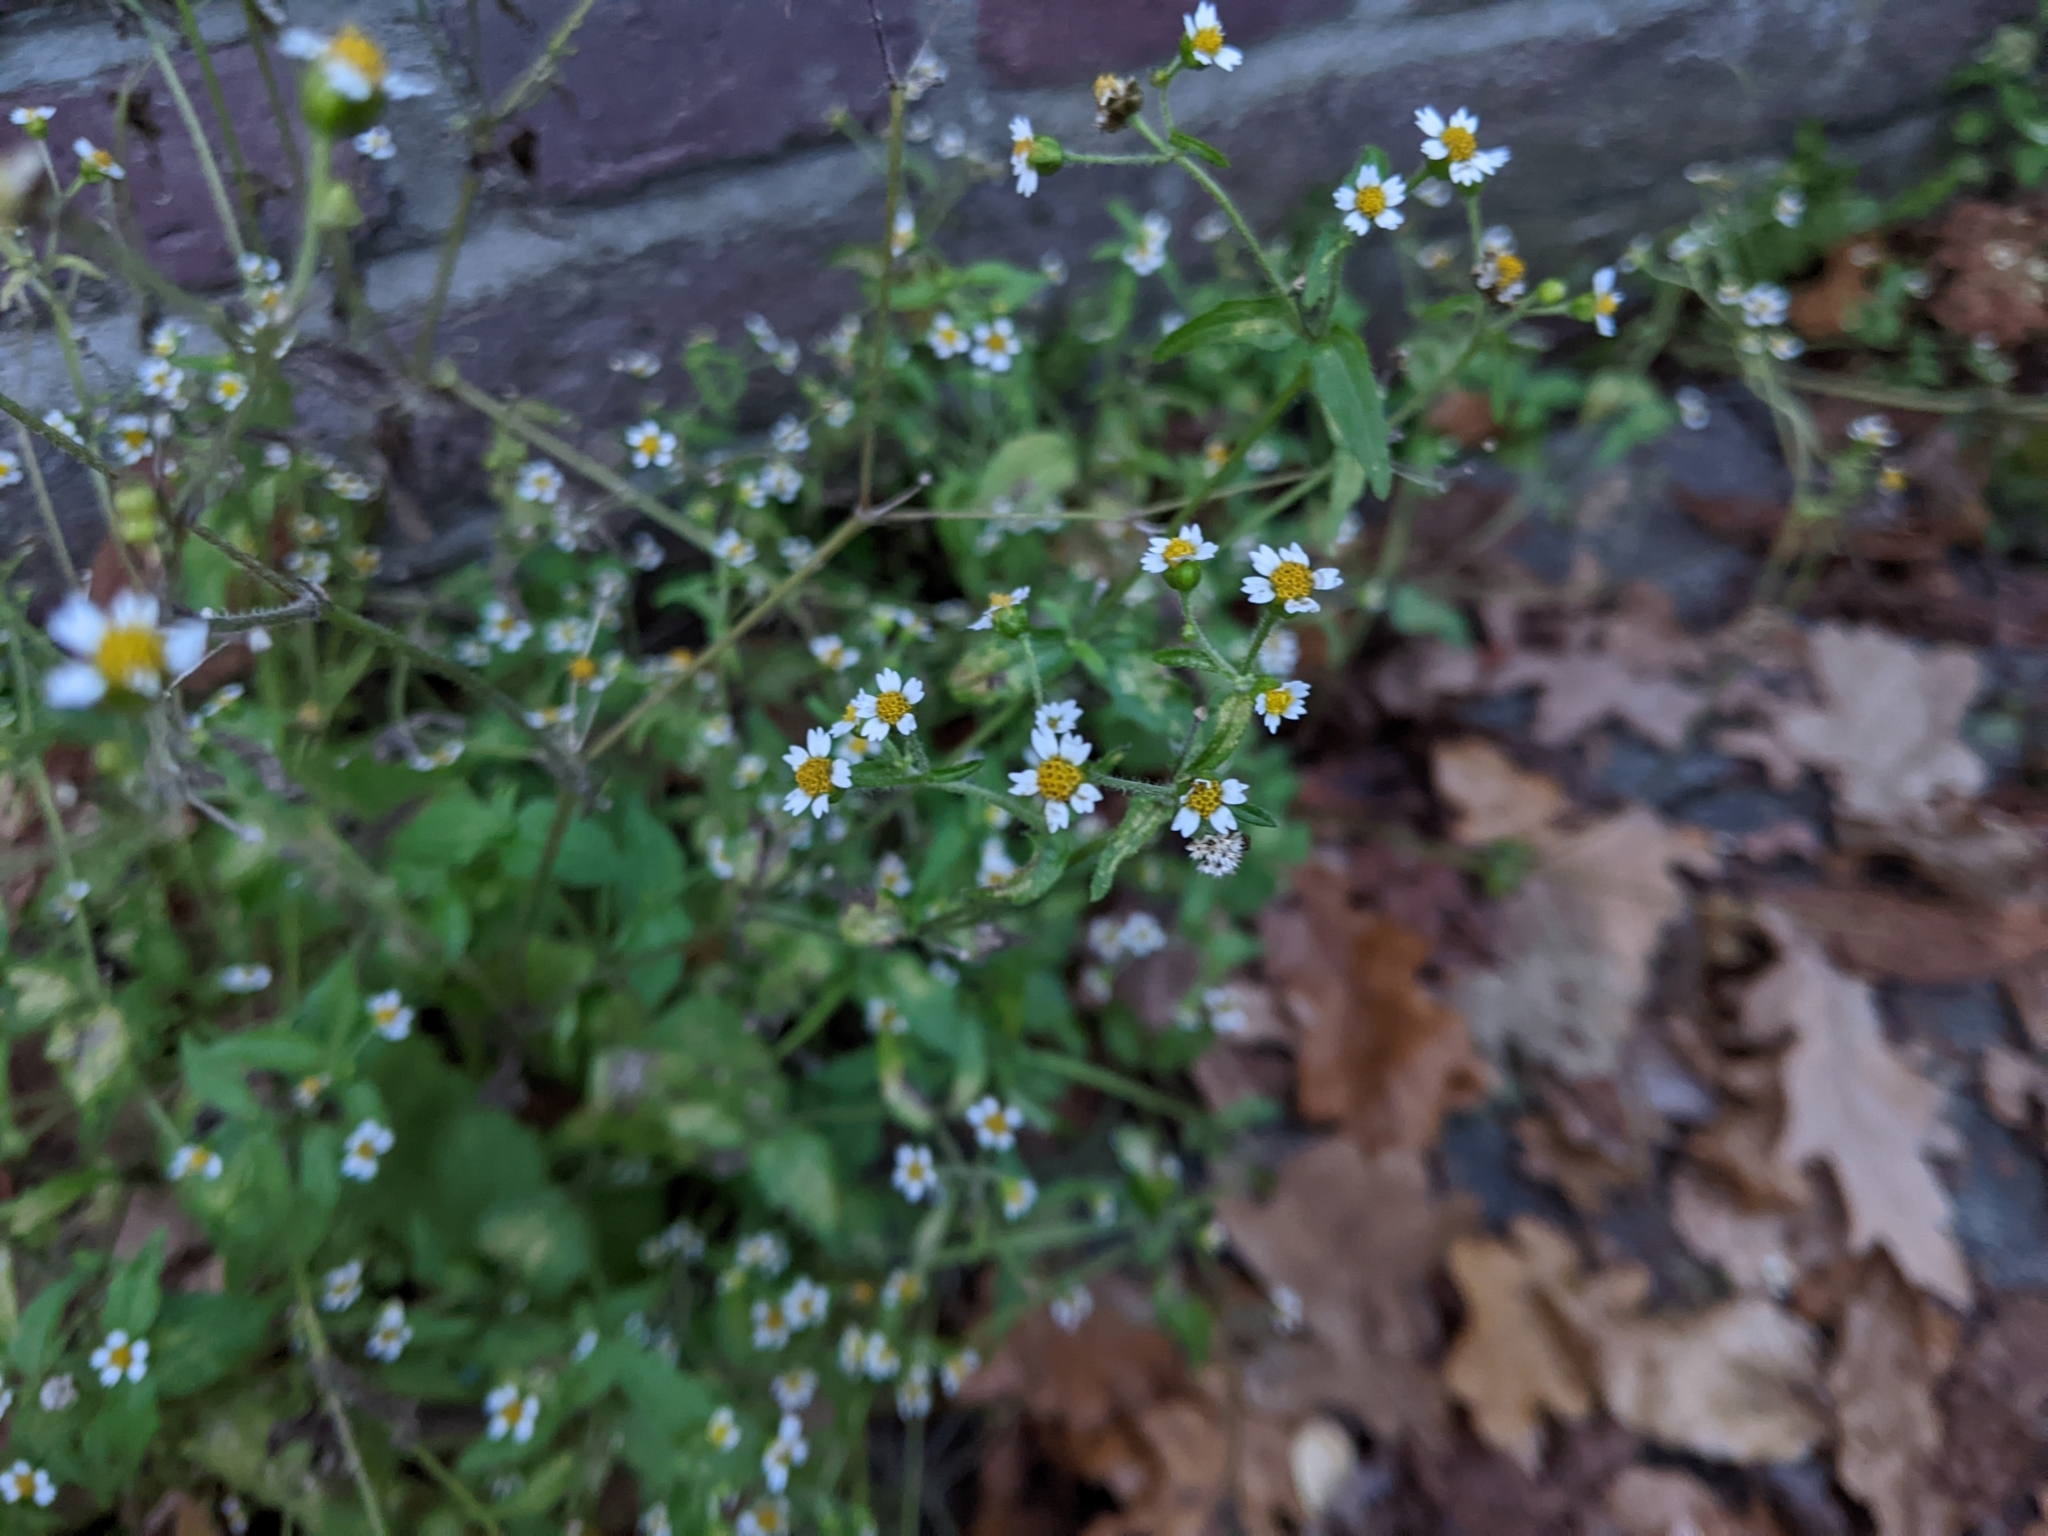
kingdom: Plantae
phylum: Tracheophyta
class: Magnoliopsida
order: Asterales
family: Asteraceae
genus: Galinsoga
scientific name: Galinsoga quadriradiata
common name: Shaggy soldier
